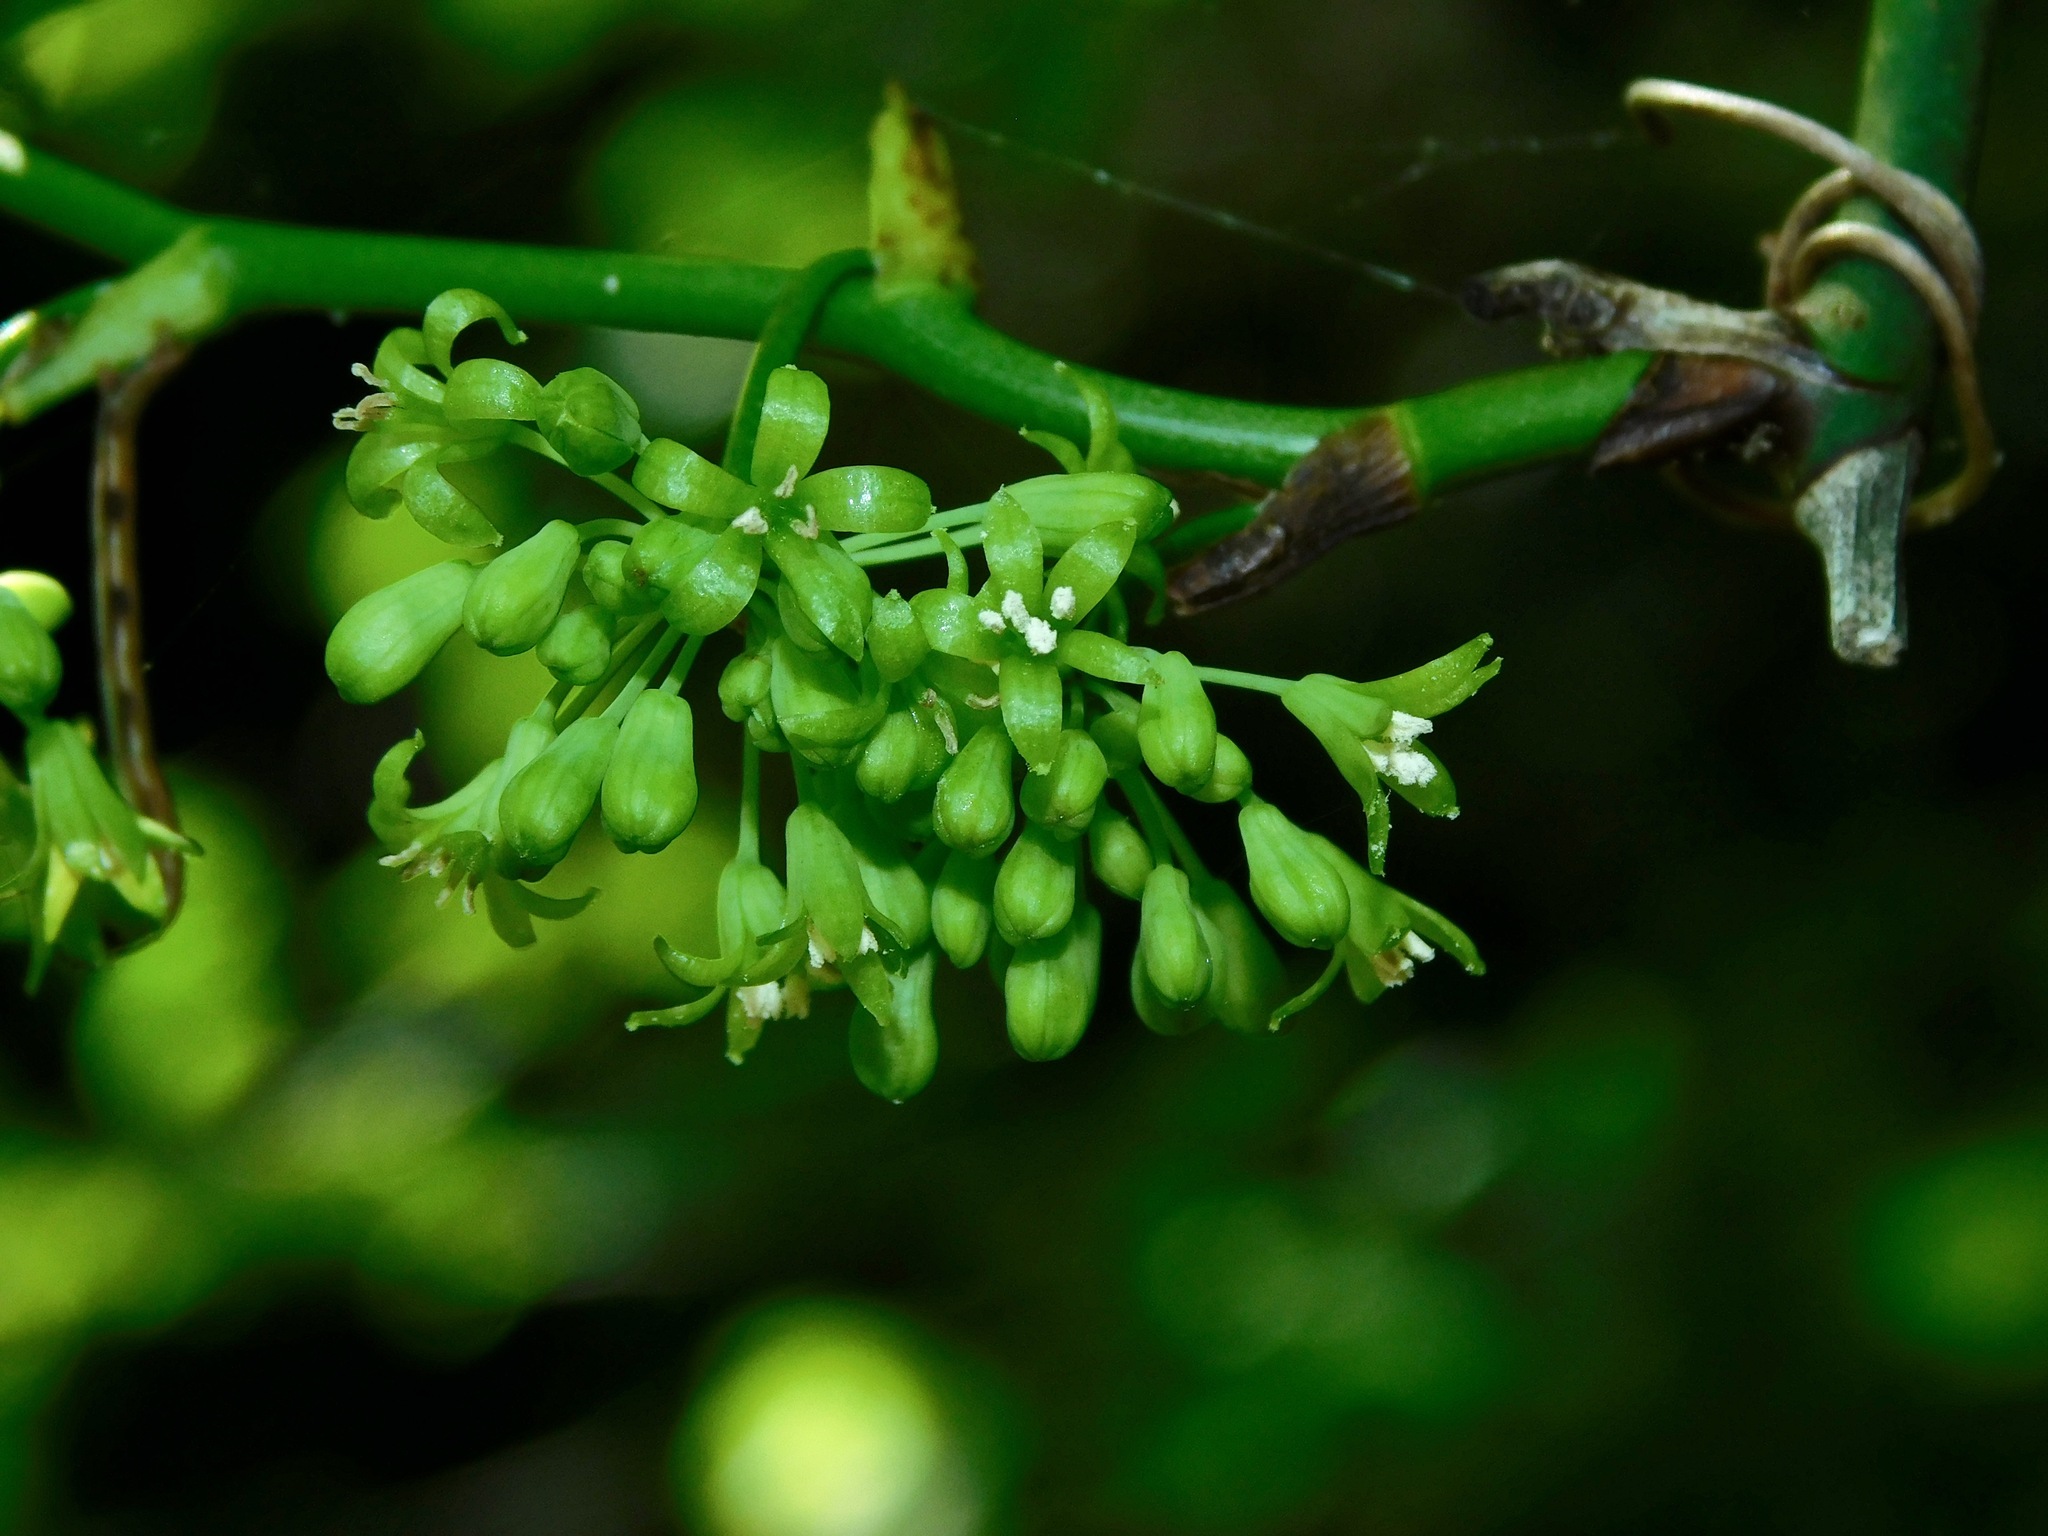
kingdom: Plantae
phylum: Tracheophyta
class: Liliopsida
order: Liliales
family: Smilacaceae
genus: Smilax
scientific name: Smilax rotundifolia
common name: Bullbriar
